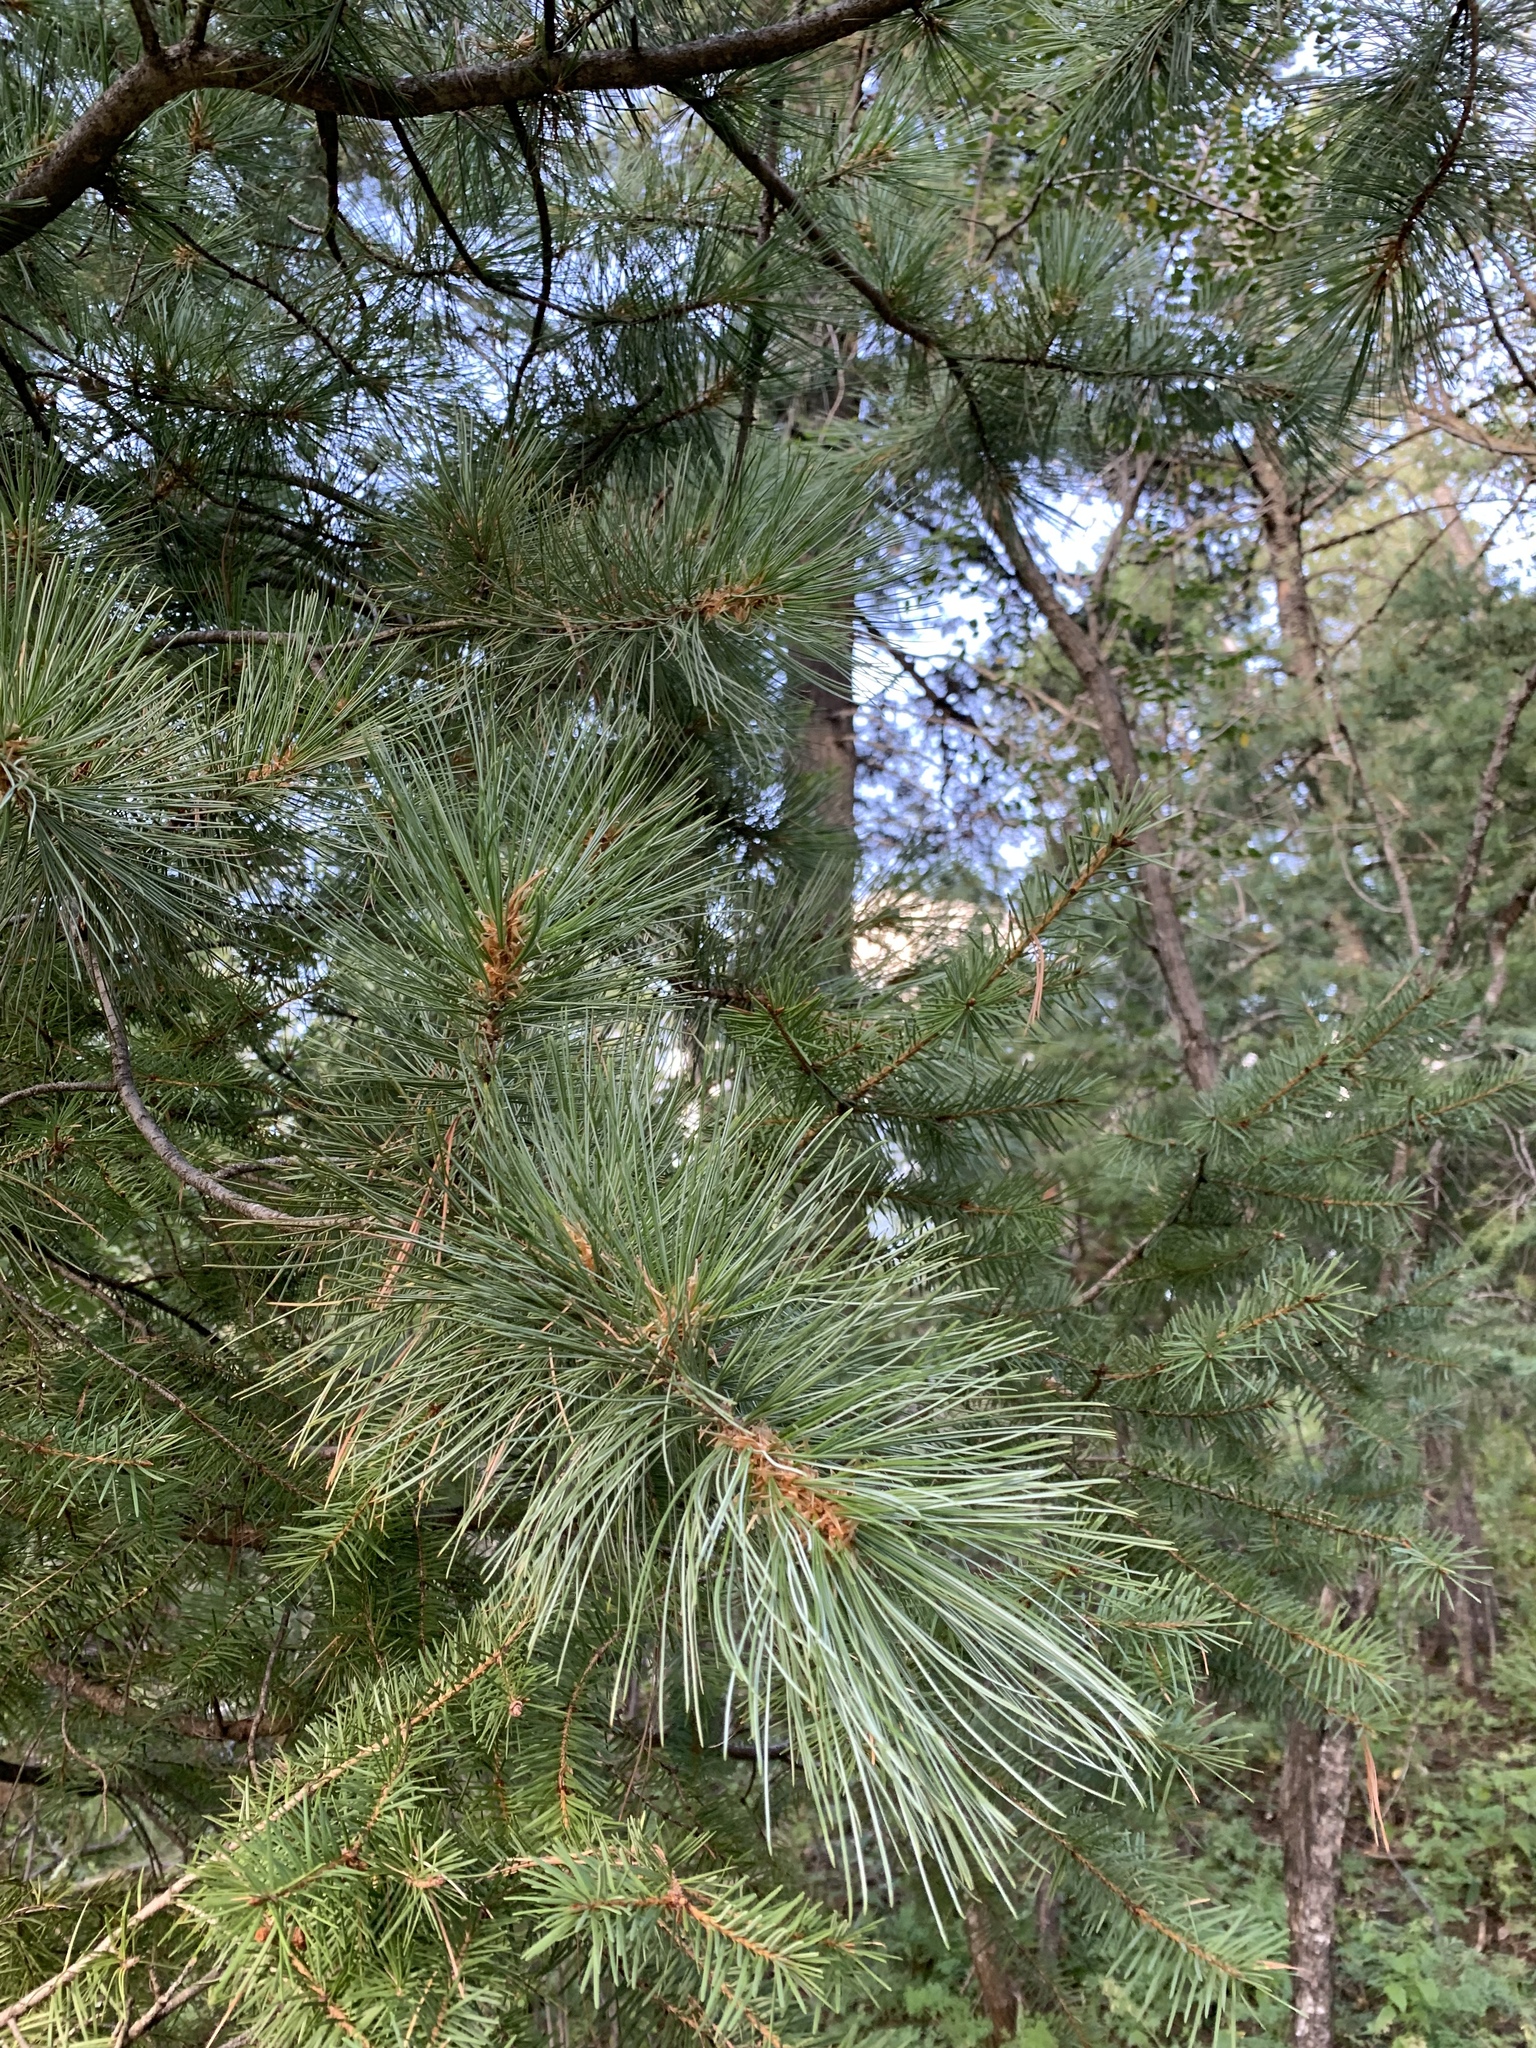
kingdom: Plantae
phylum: Tracheophyta
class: Pinopsida
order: Pinales
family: Pinaceae
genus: Pinus
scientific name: Pinus strobiformis
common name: Southwestern white pine
